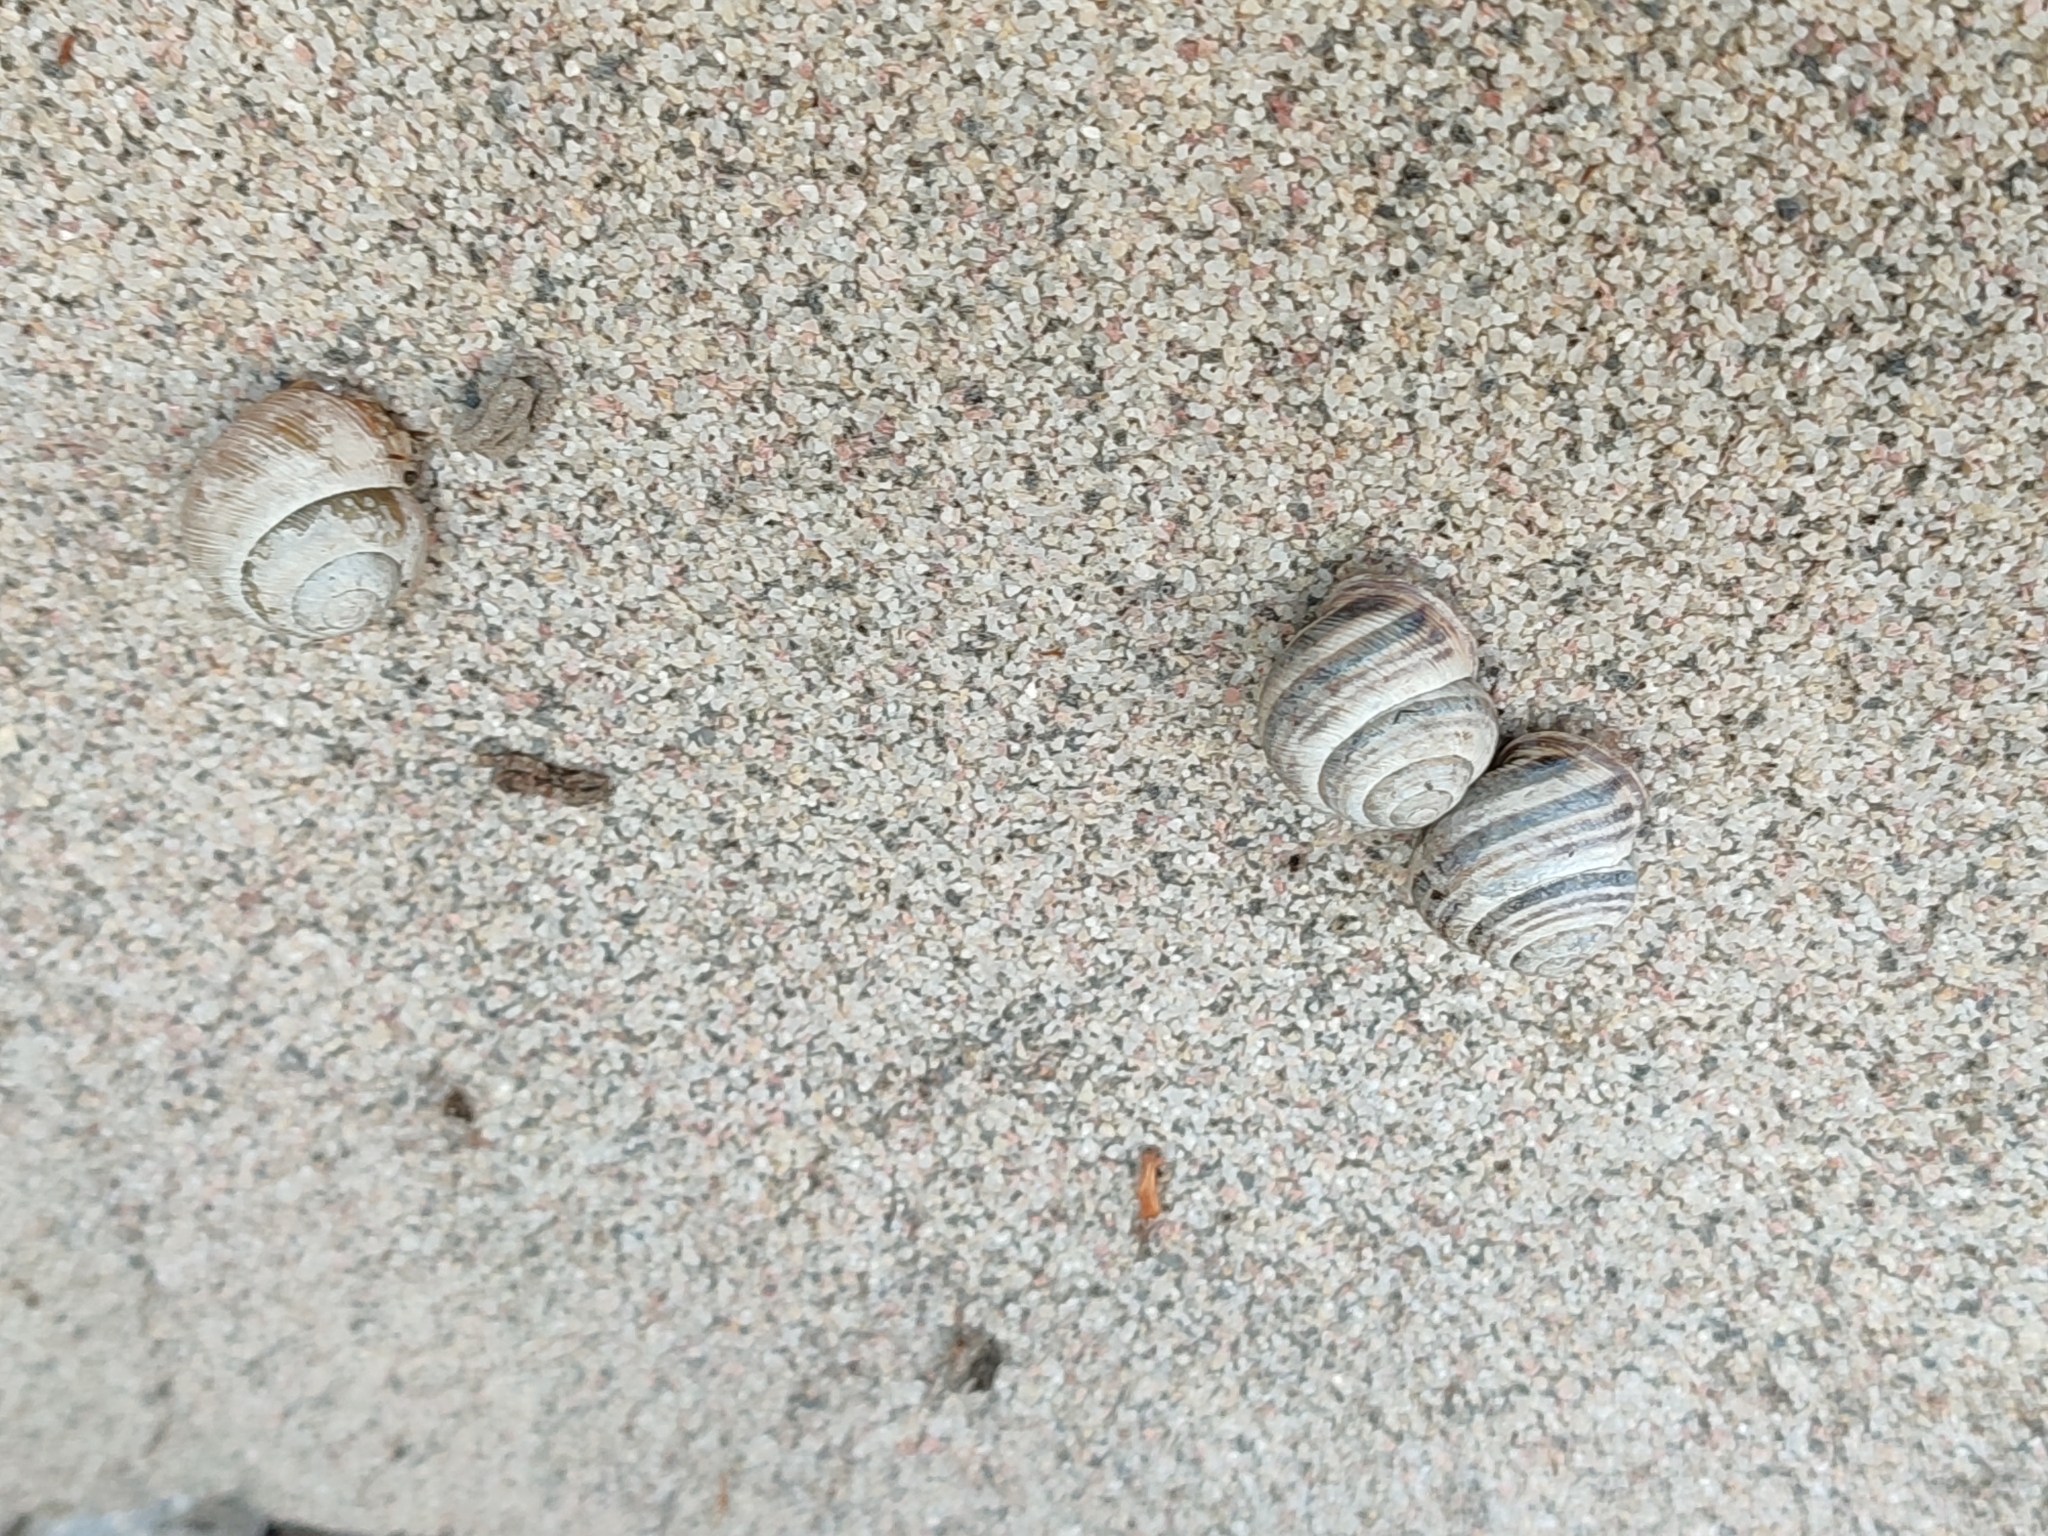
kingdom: Animalia
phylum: Mollusca
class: Gastropoda
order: Stylommatophora
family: Helicidae
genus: Caucasotachea
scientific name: Caucasotachea vindobonensis
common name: European helicid land snail
